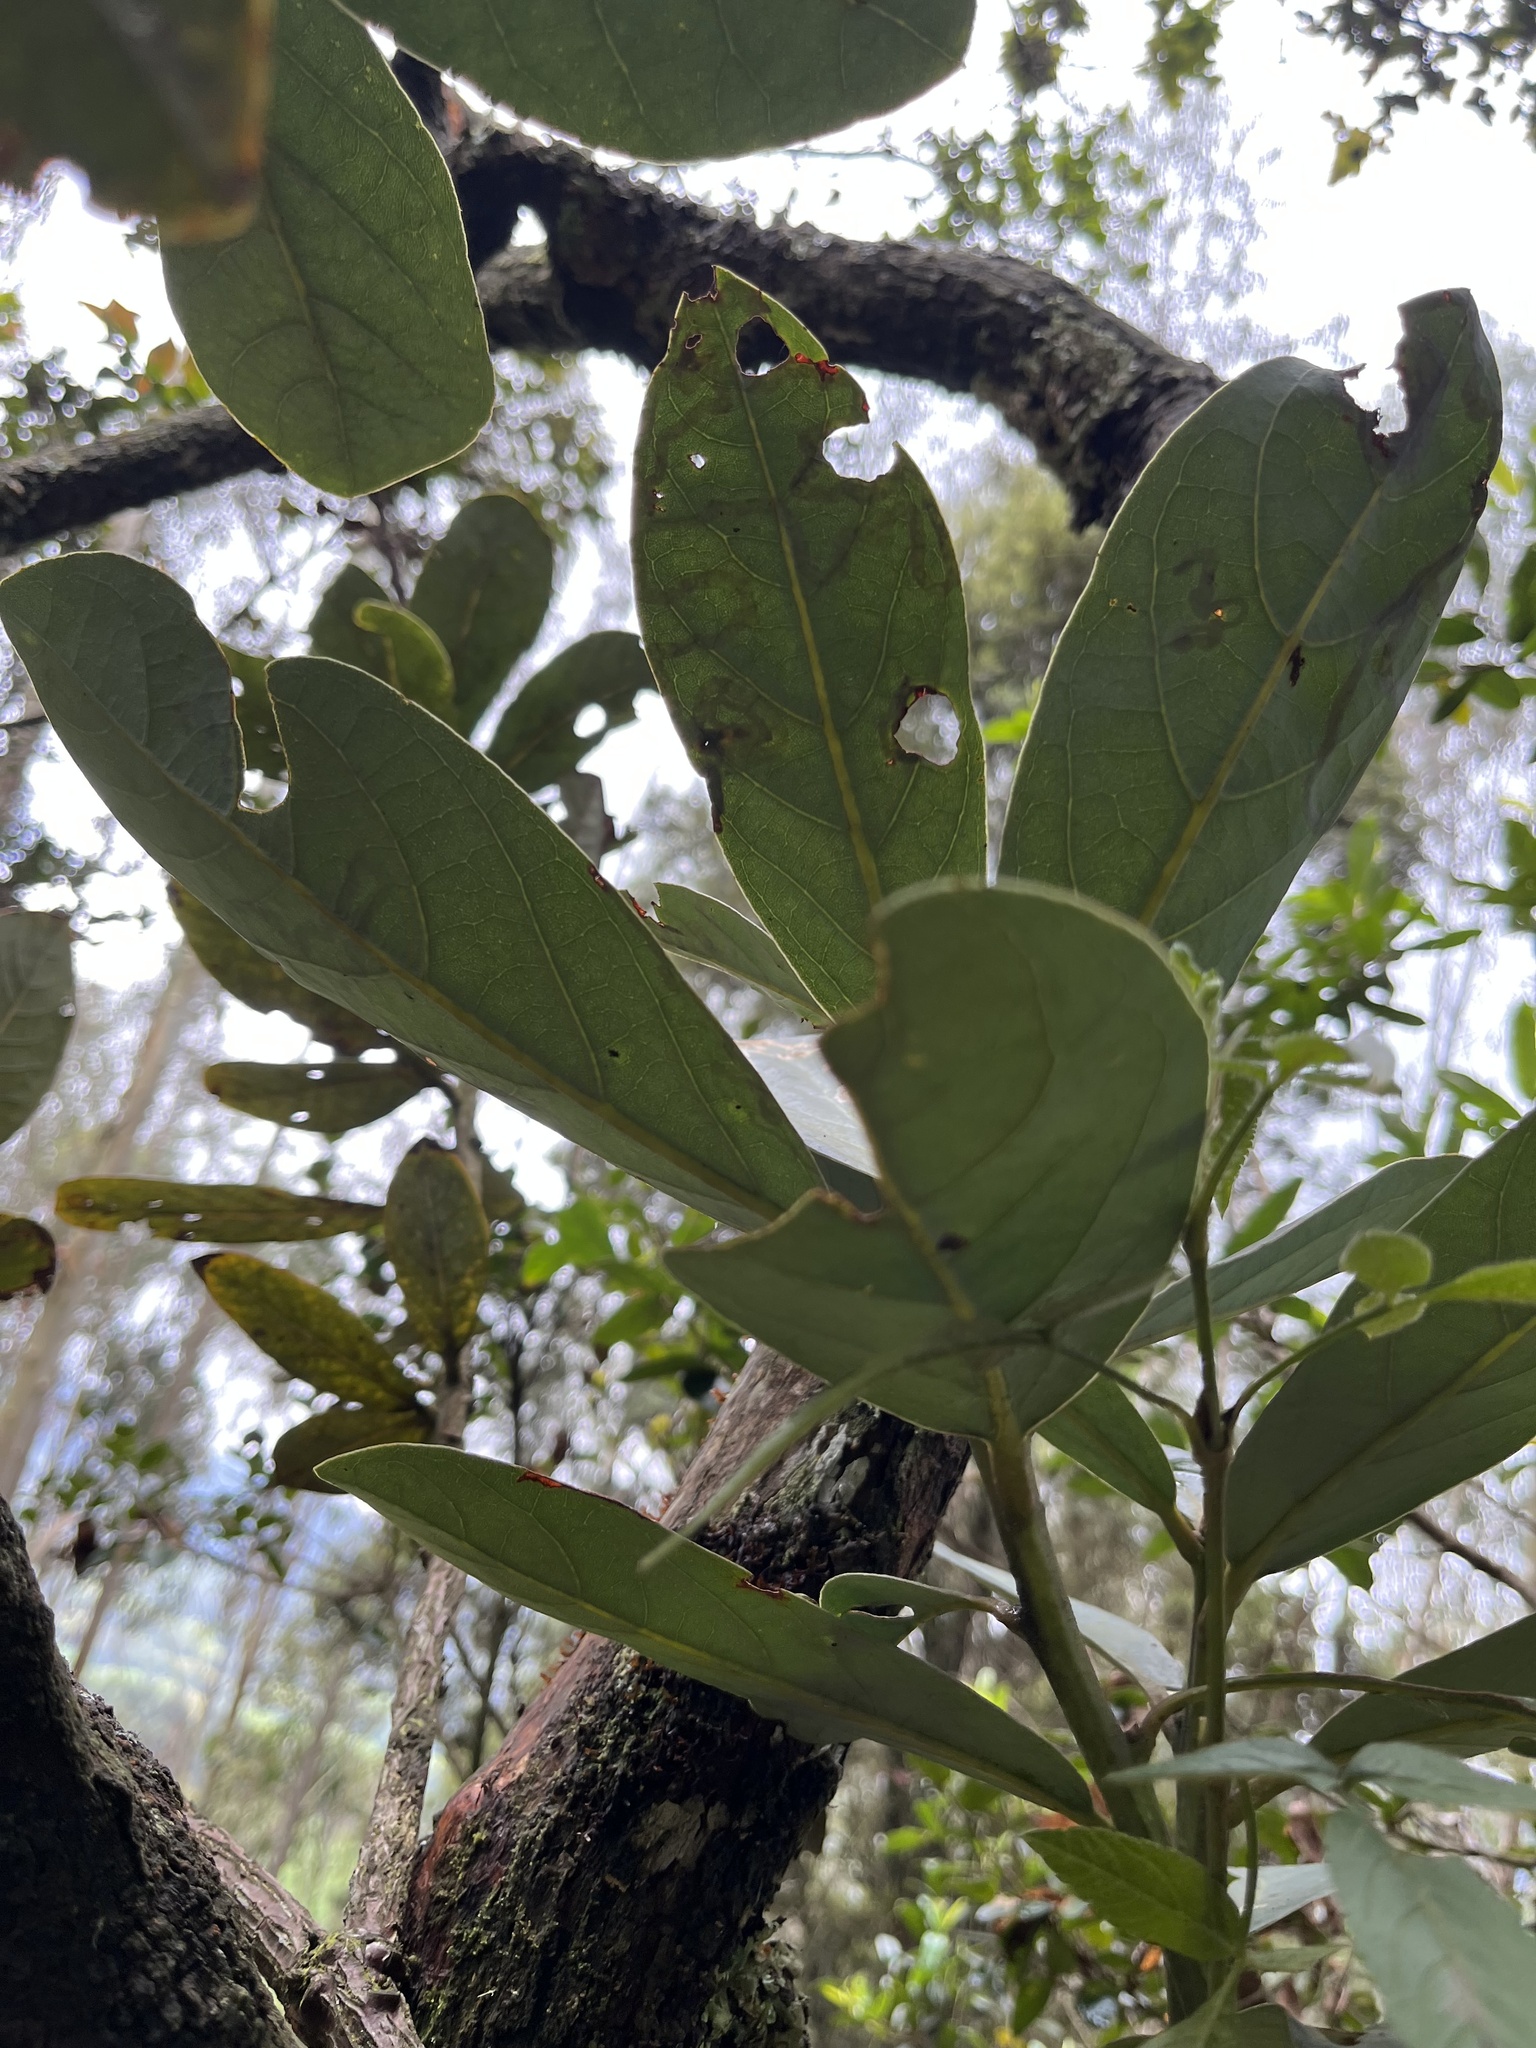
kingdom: Plantae
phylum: Tracheophyta
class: Magnoliopsida
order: Laurales
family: Lauraceae
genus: Persea
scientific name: Persea mutisii
